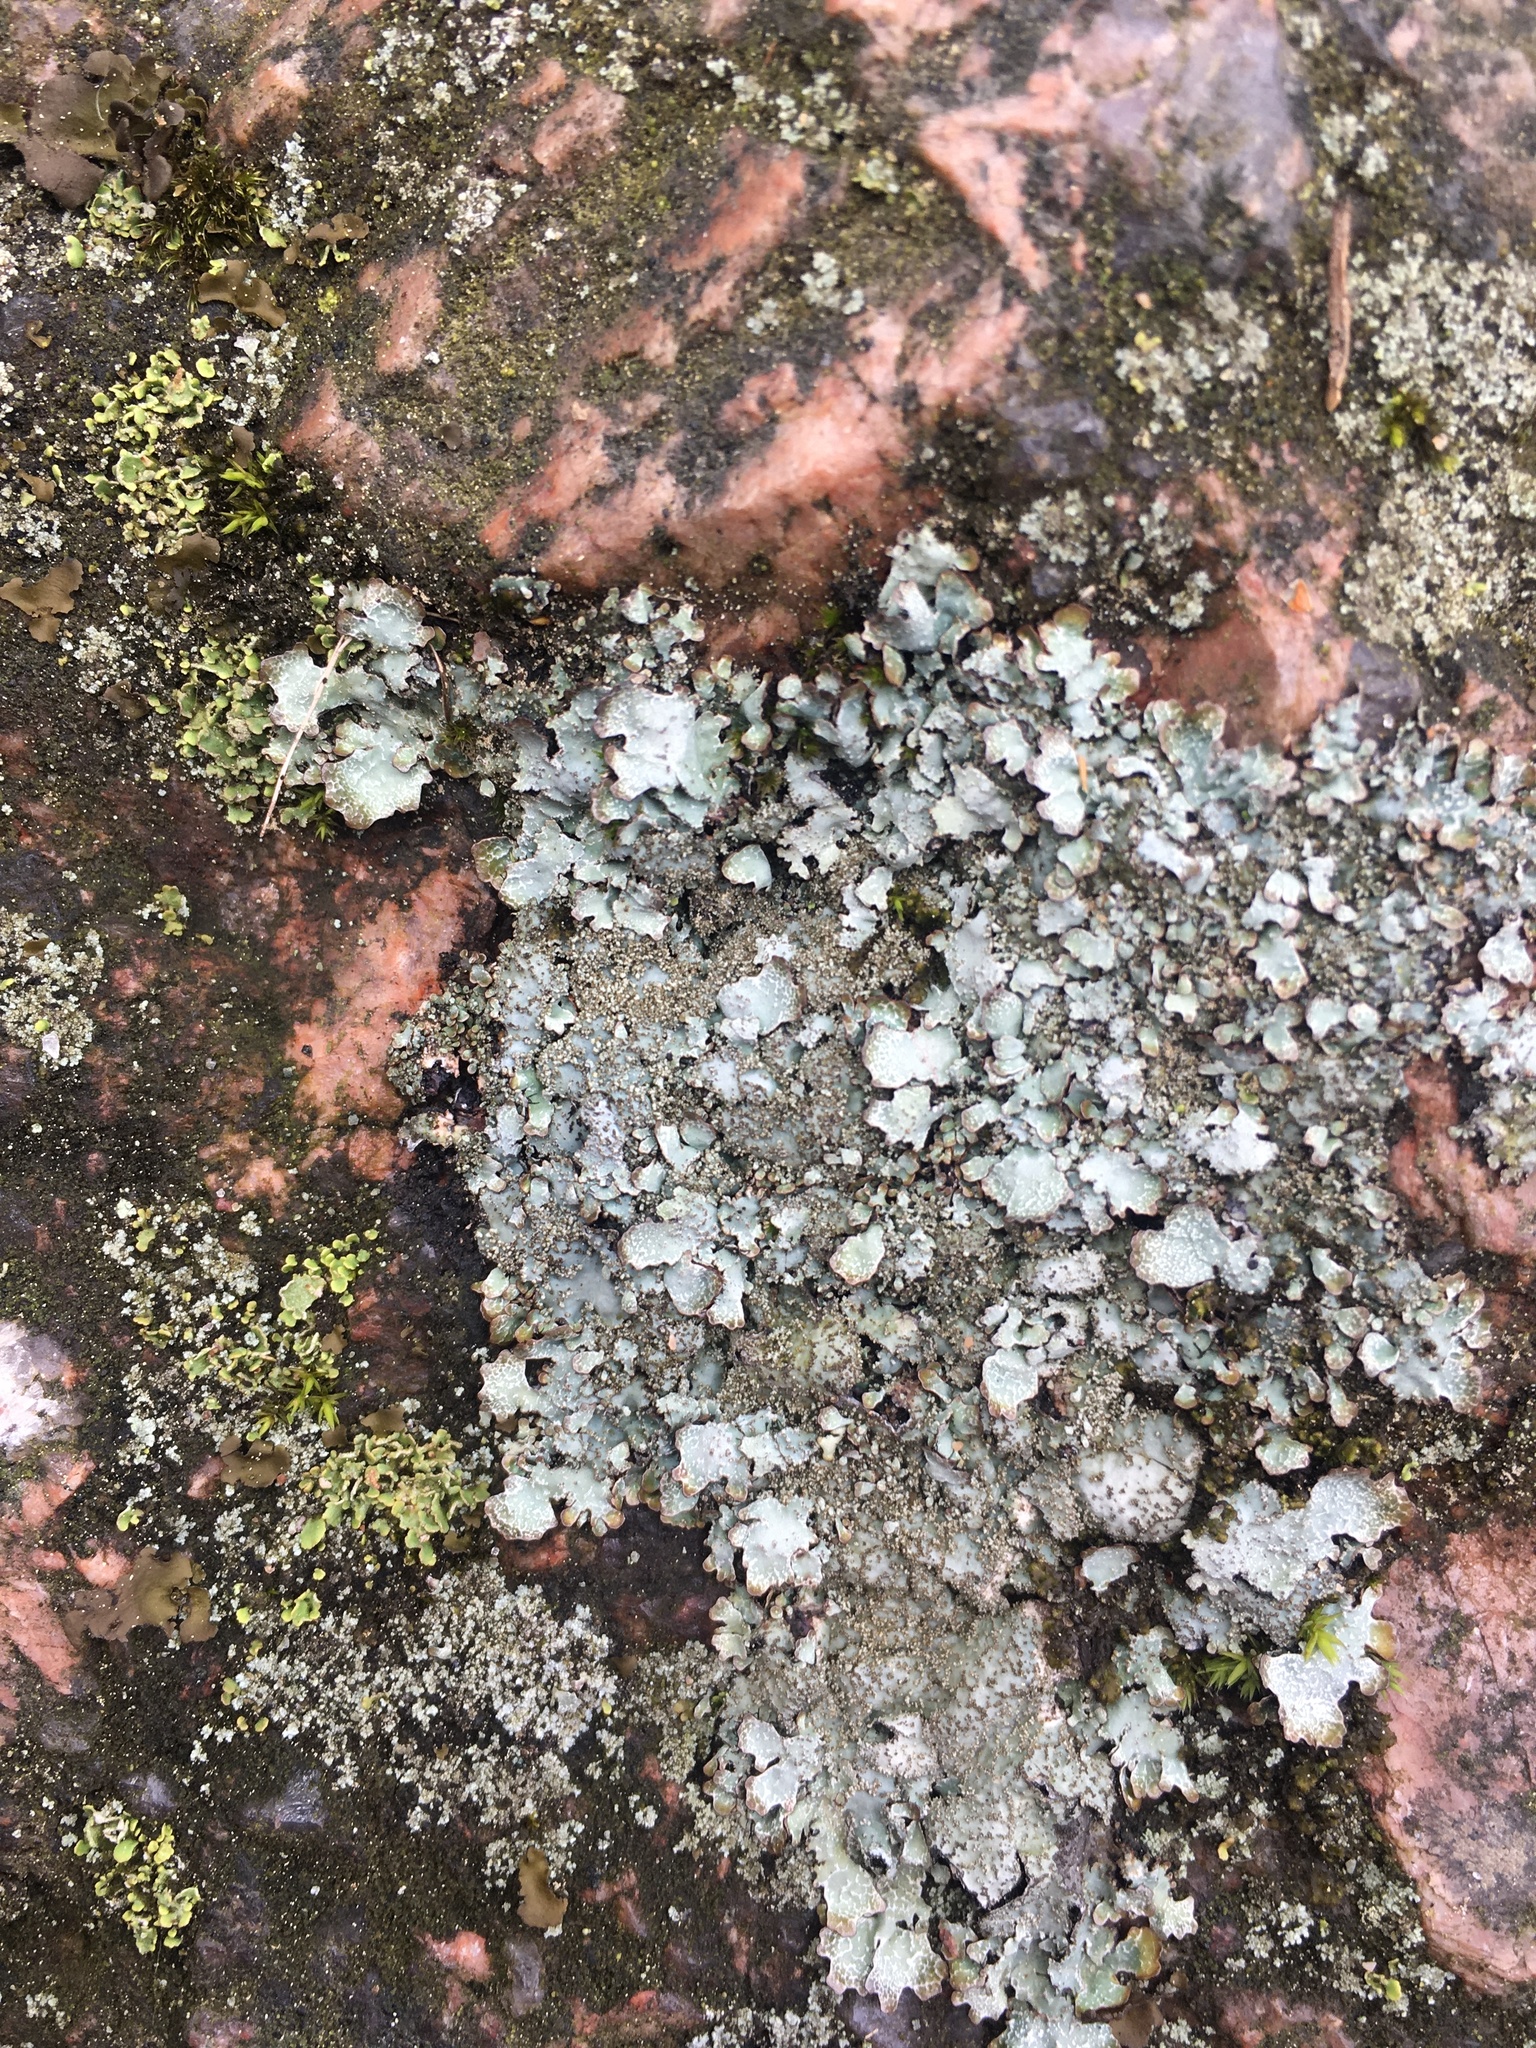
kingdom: Fungi
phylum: Ascomycota
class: Lecanoromycetes
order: Lecanorales
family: Parmeliaceae
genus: Parmelia
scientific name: Parmelia saxatilis
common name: Salted shield lichen
